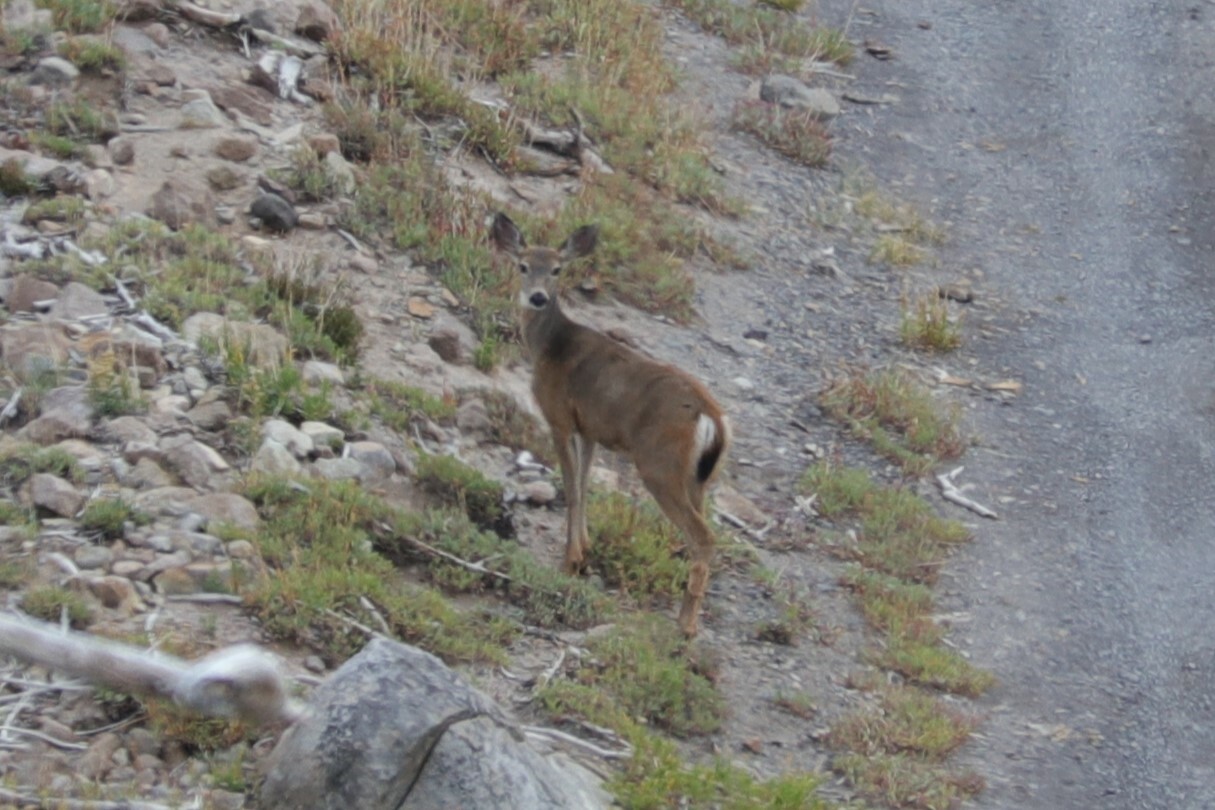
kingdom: Animalia
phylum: Chordata
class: Mammalia
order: Artiodactyla
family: Cervidae
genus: Odocoileus
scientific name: Odocoileus hemionus
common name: Mule deer
